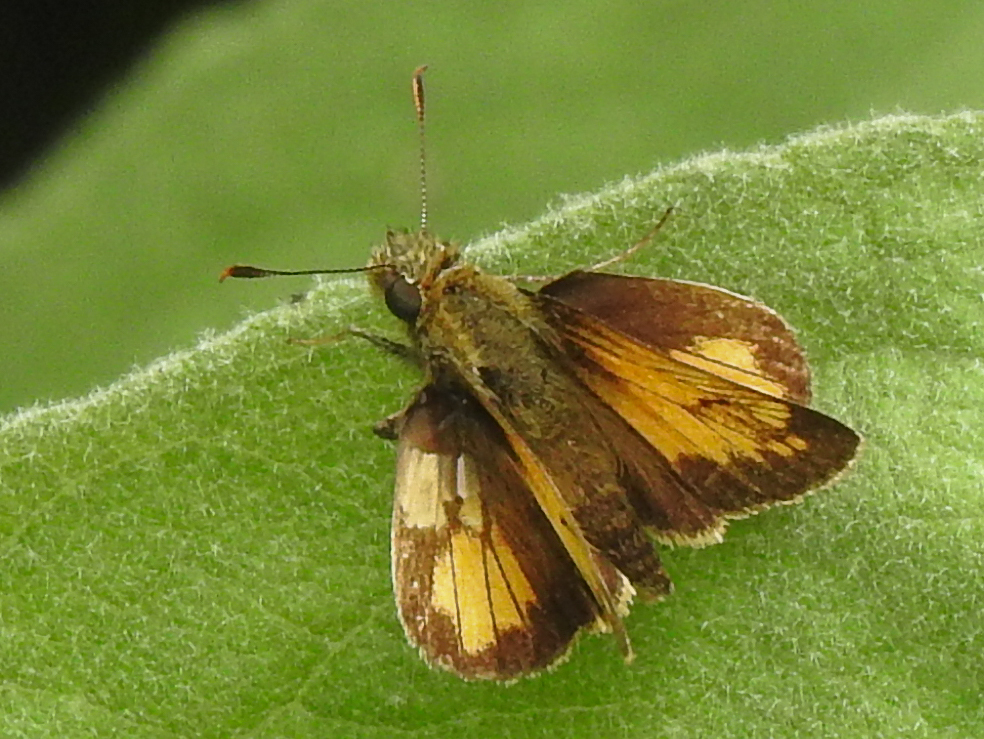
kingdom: Animalia
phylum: Arthropoda
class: Insecta
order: Lepidoptera
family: Hesperiidae
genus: Lon
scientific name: Lon hobomok
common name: Hobomok skipper
